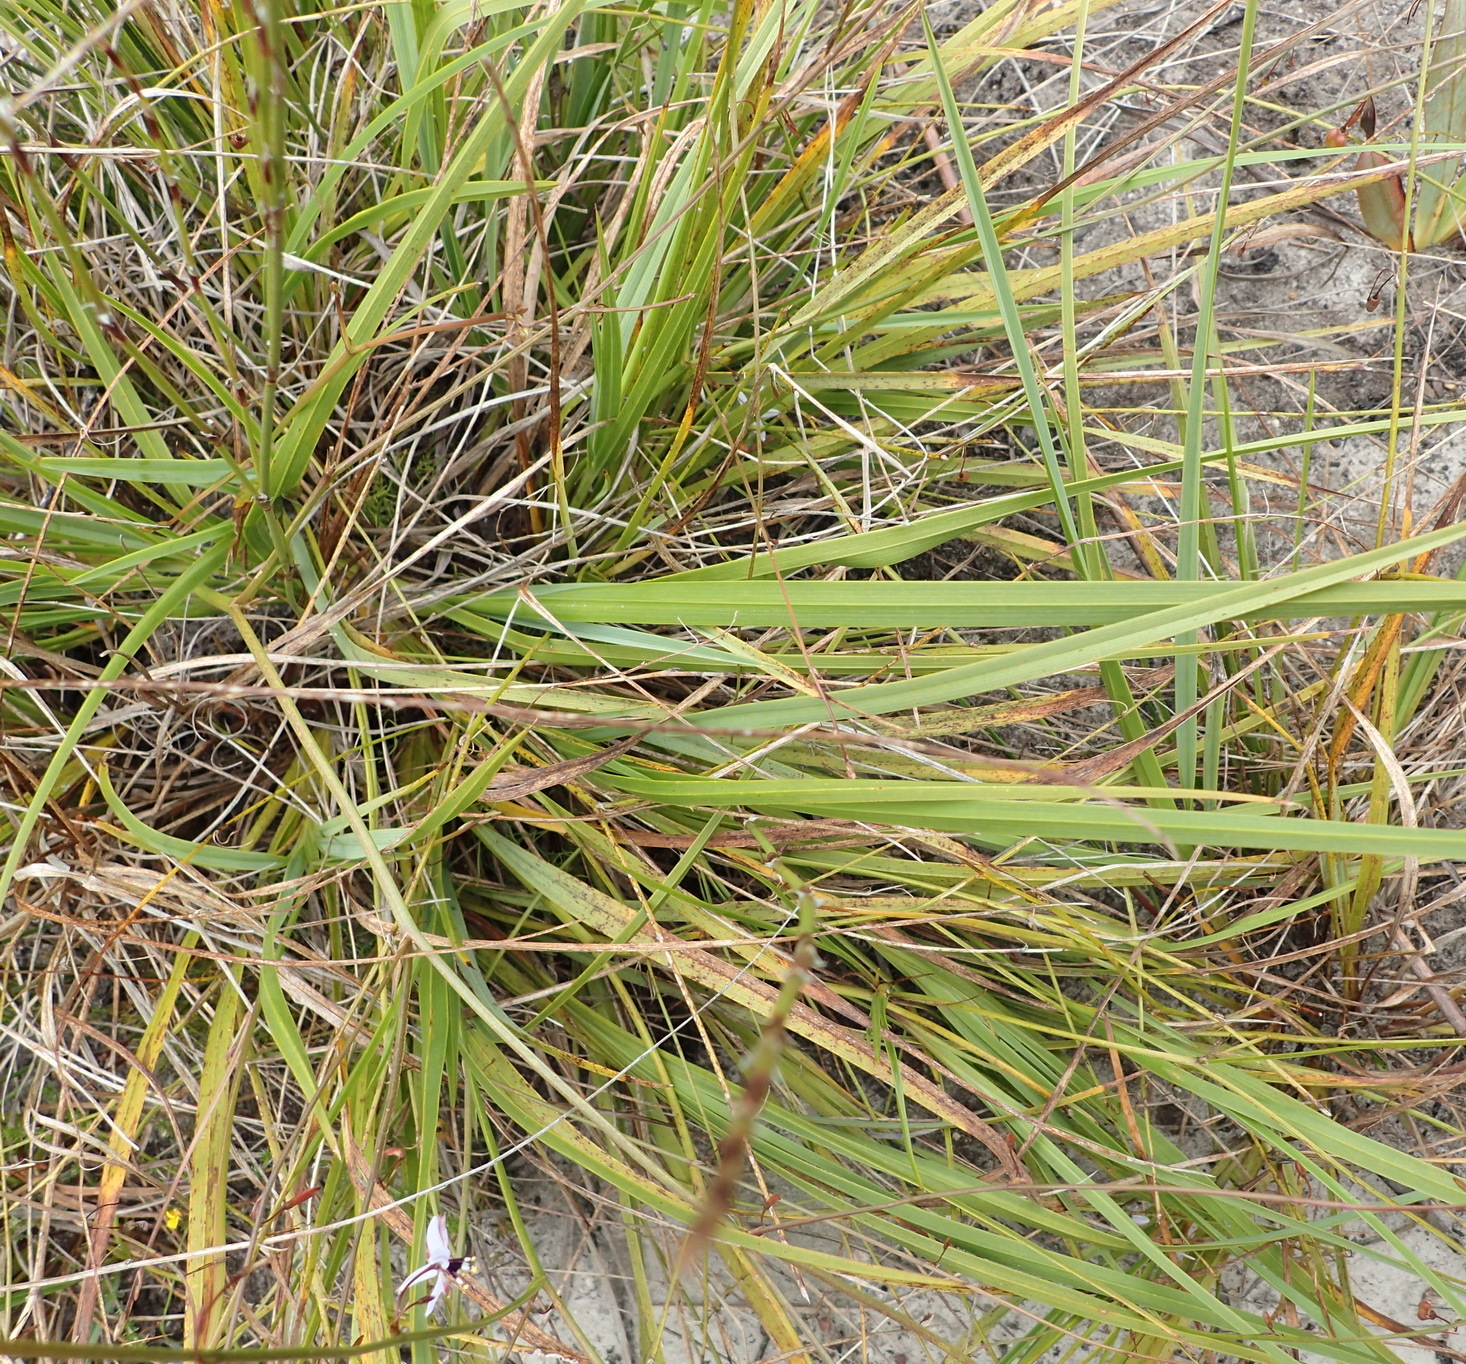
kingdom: Plantae
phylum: Tracheophyta
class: Liliopsida
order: Asparagales
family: Asphodelaceae
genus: Caesia
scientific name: Caesia contorta
